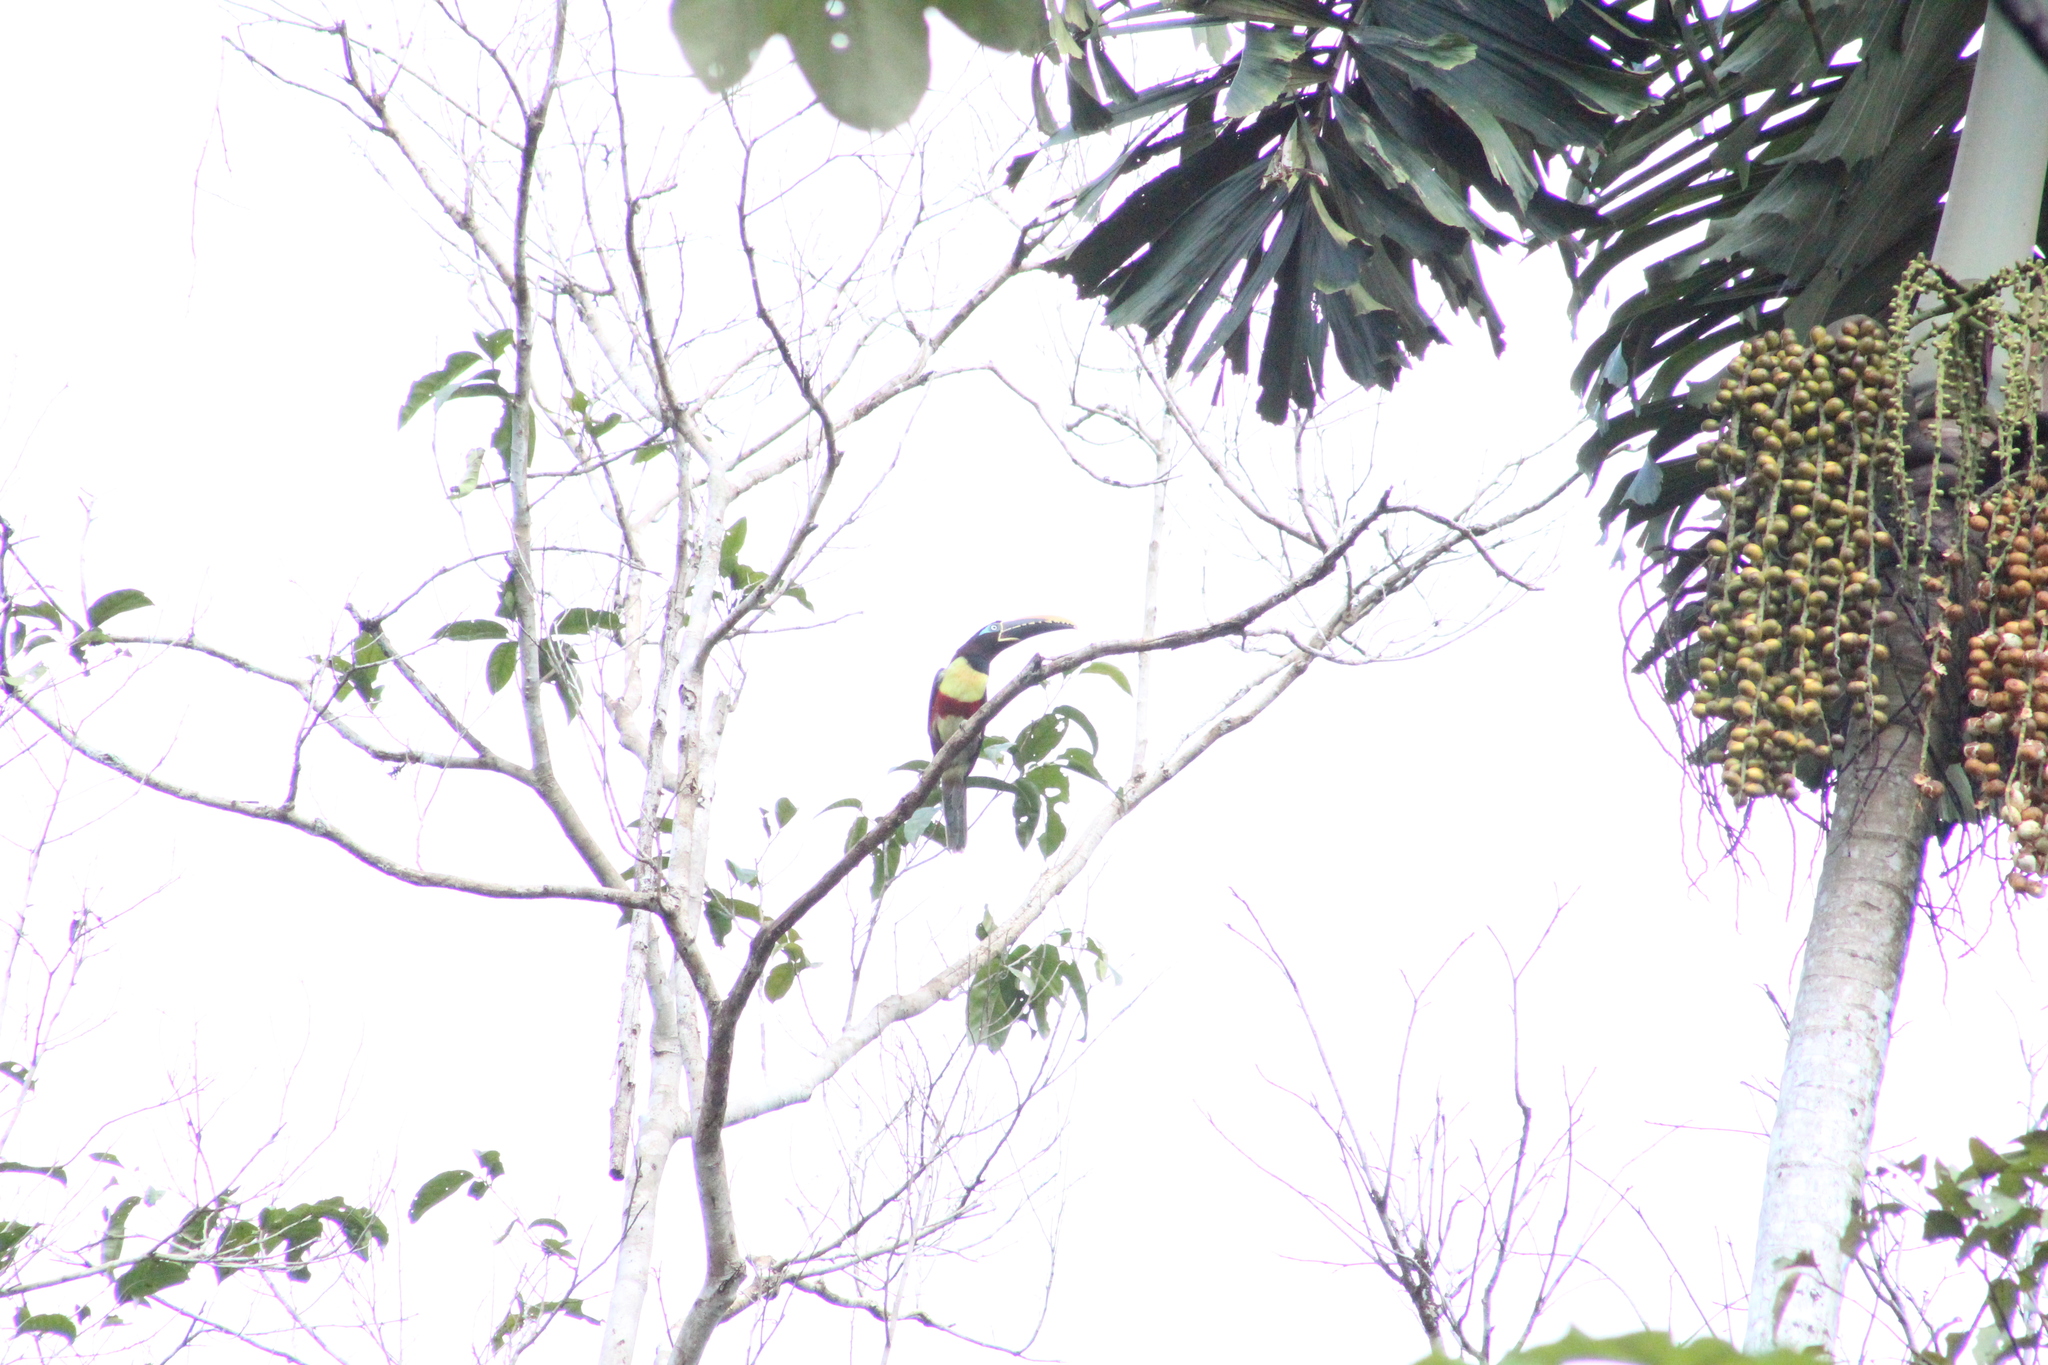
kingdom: Animalia
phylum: Chordata
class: Aves
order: Piciformes
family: Ramphastidae
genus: Pteroglossus
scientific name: Pteroglossus castanotis
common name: Chestnut-eared aracari
